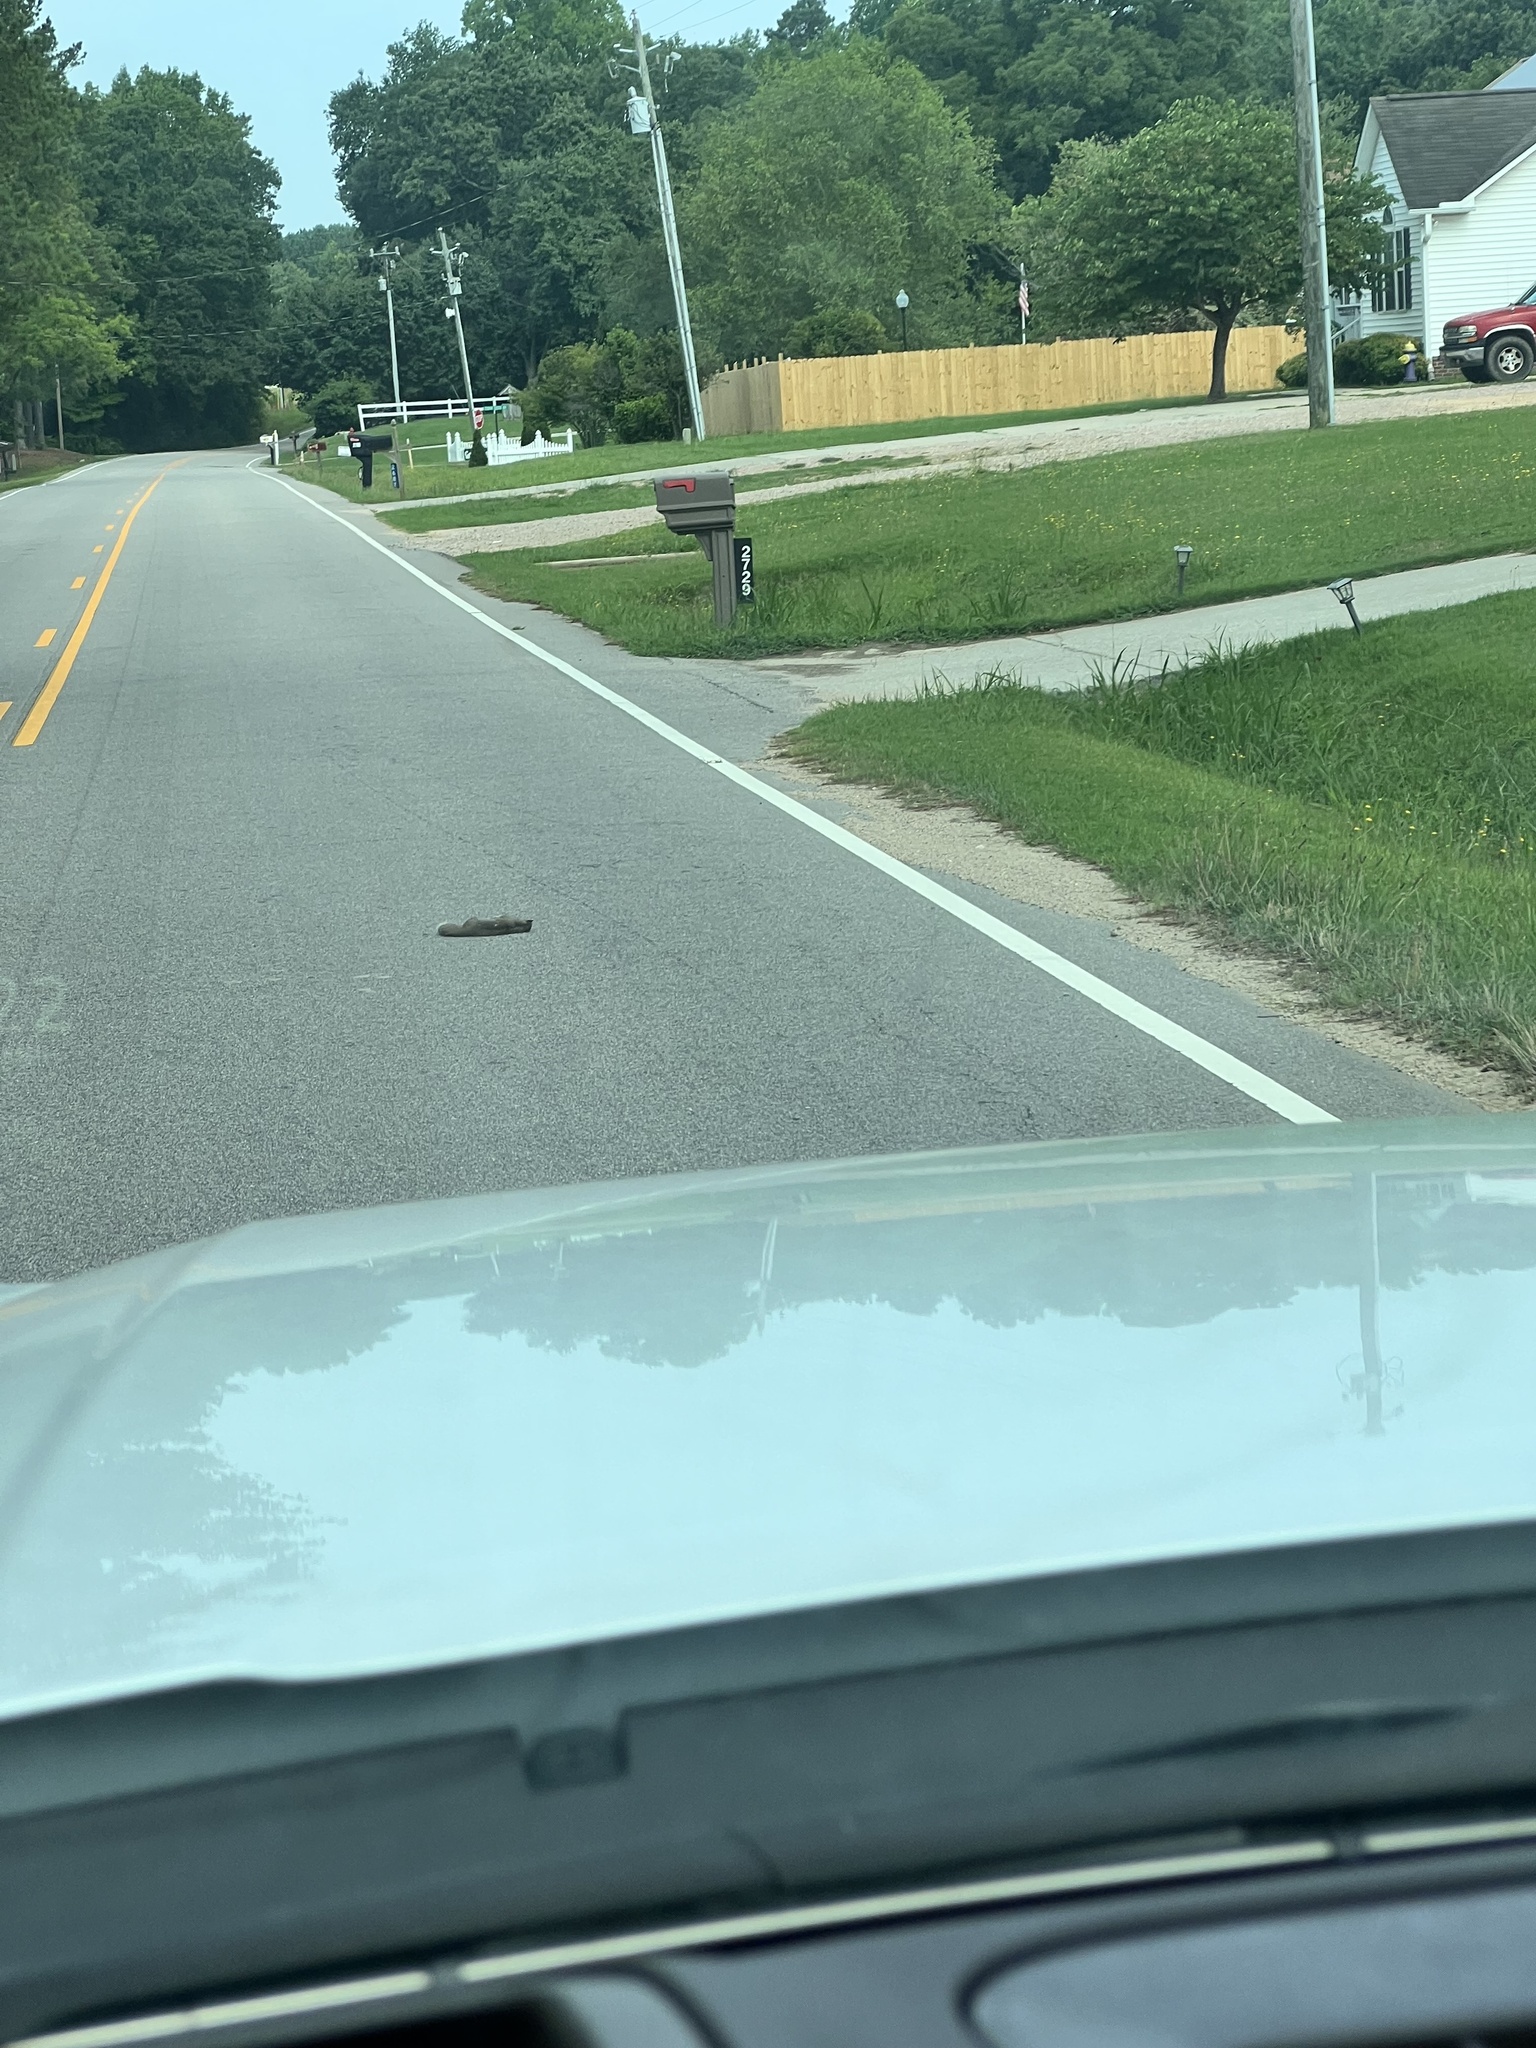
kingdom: Animalia
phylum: Chordata
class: Mammalia
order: Rodentia
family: Sciuridae
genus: Sciurus
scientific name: Sciurus carolinensis
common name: Eastern gray squirrel
